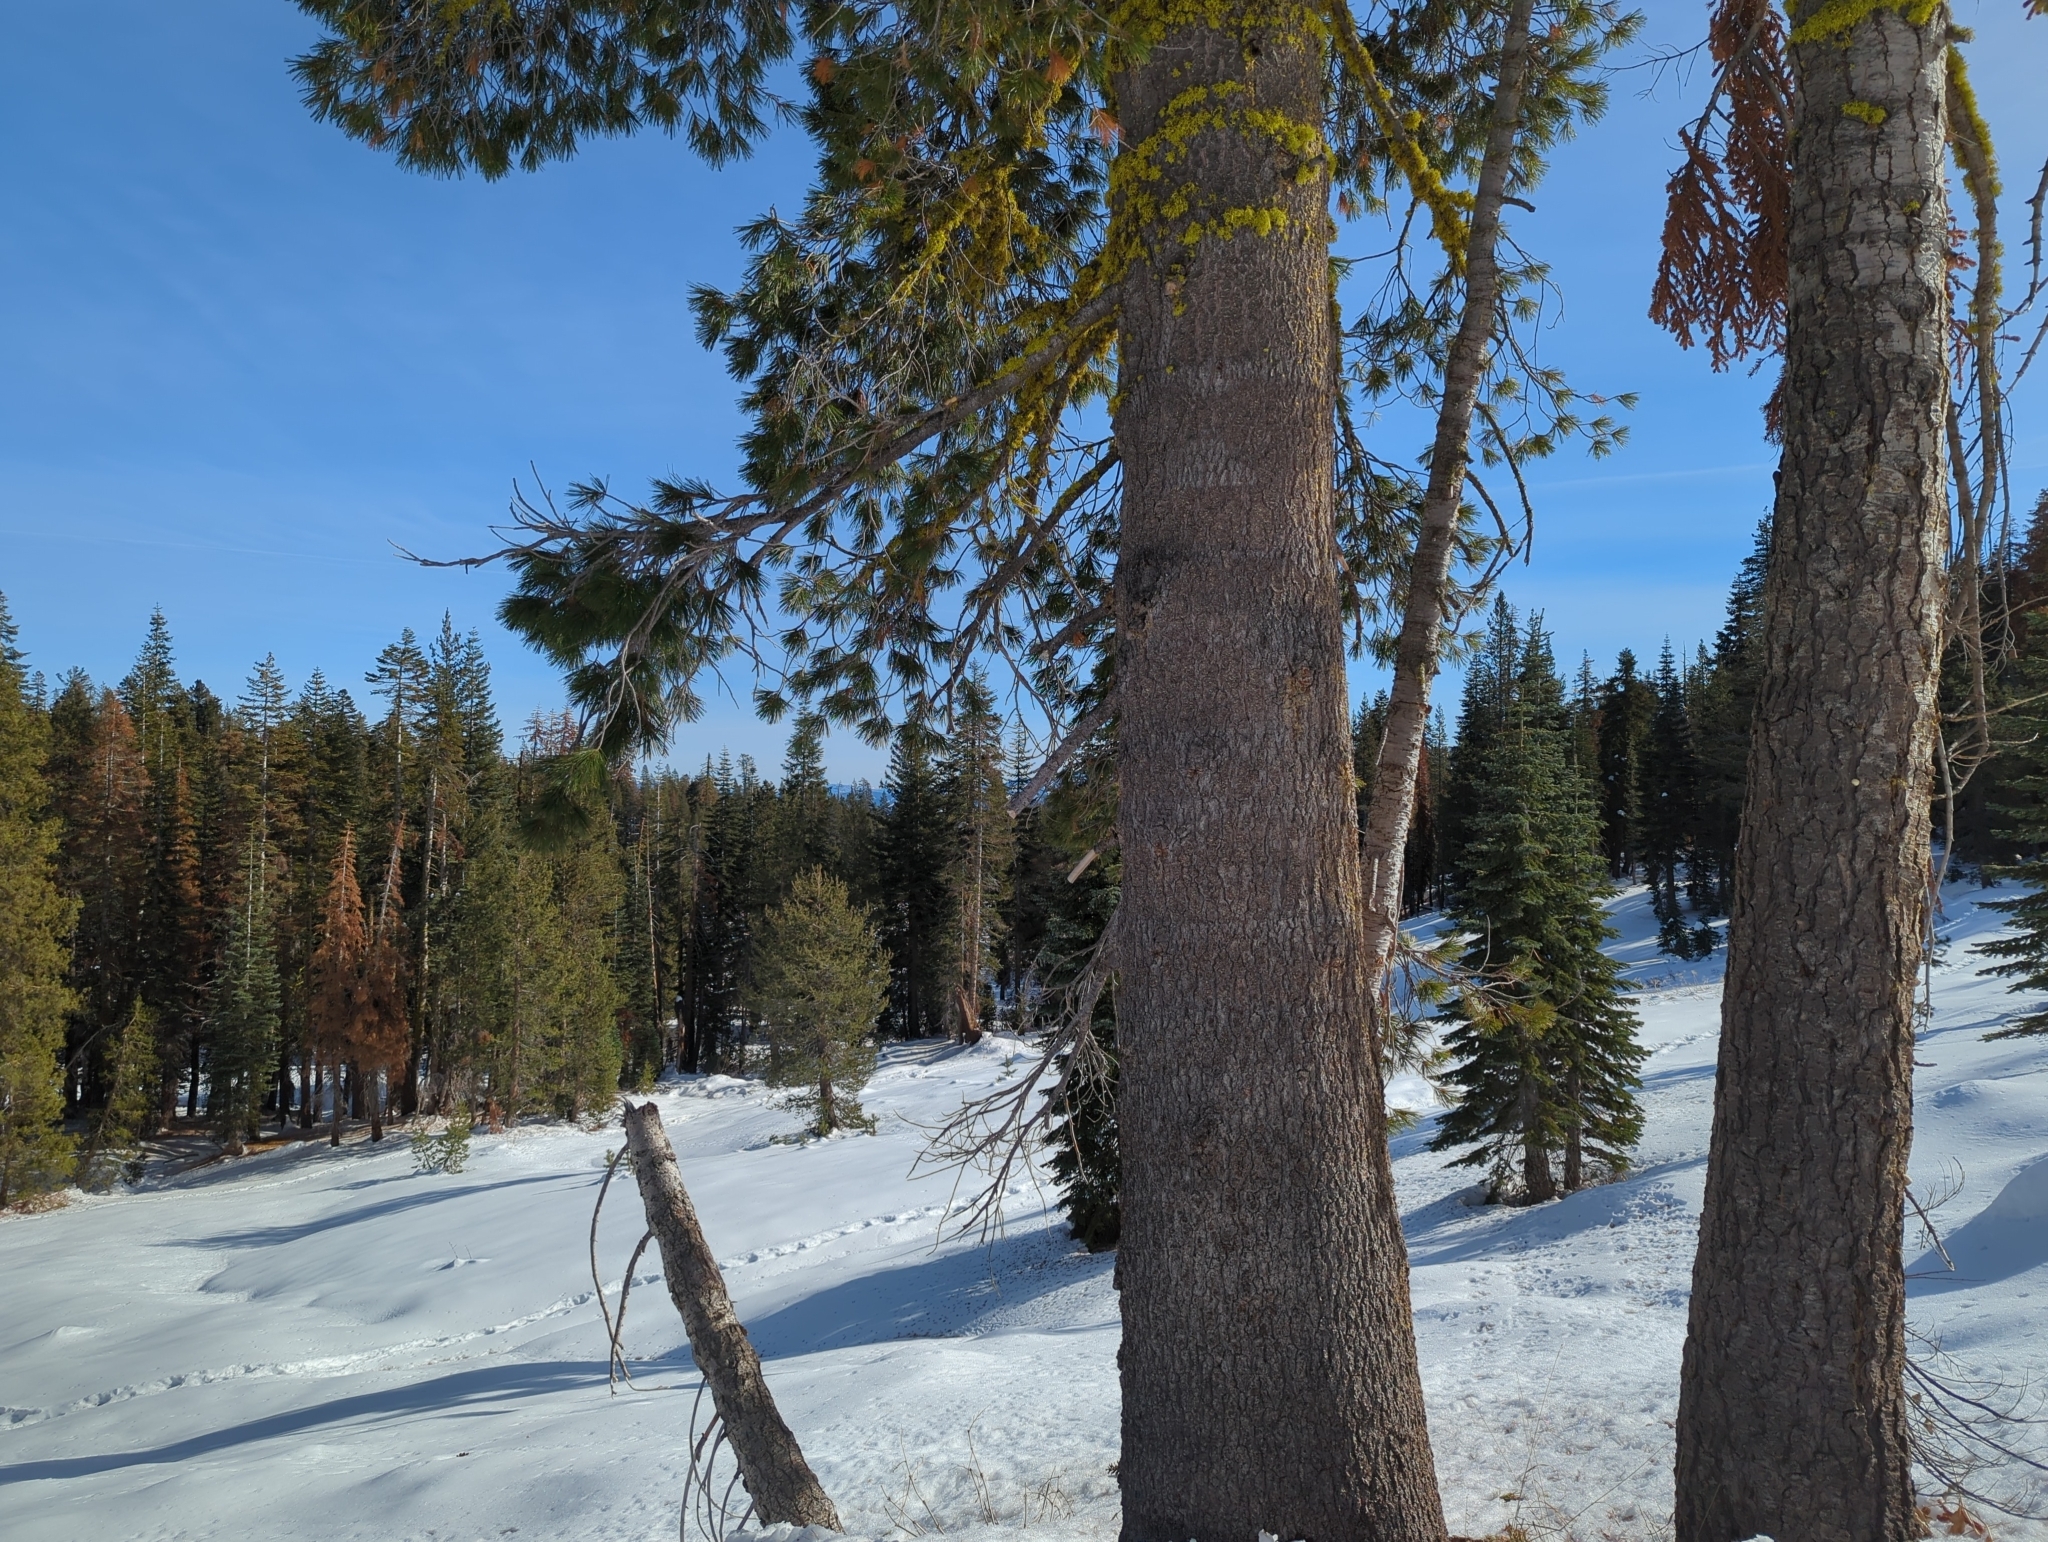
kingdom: Plantae
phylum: Tracheophyta
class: Pinopsida
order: Pinales
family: Pinaceae
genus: Pinus
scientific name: Pinus monticola
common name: Western white pine
